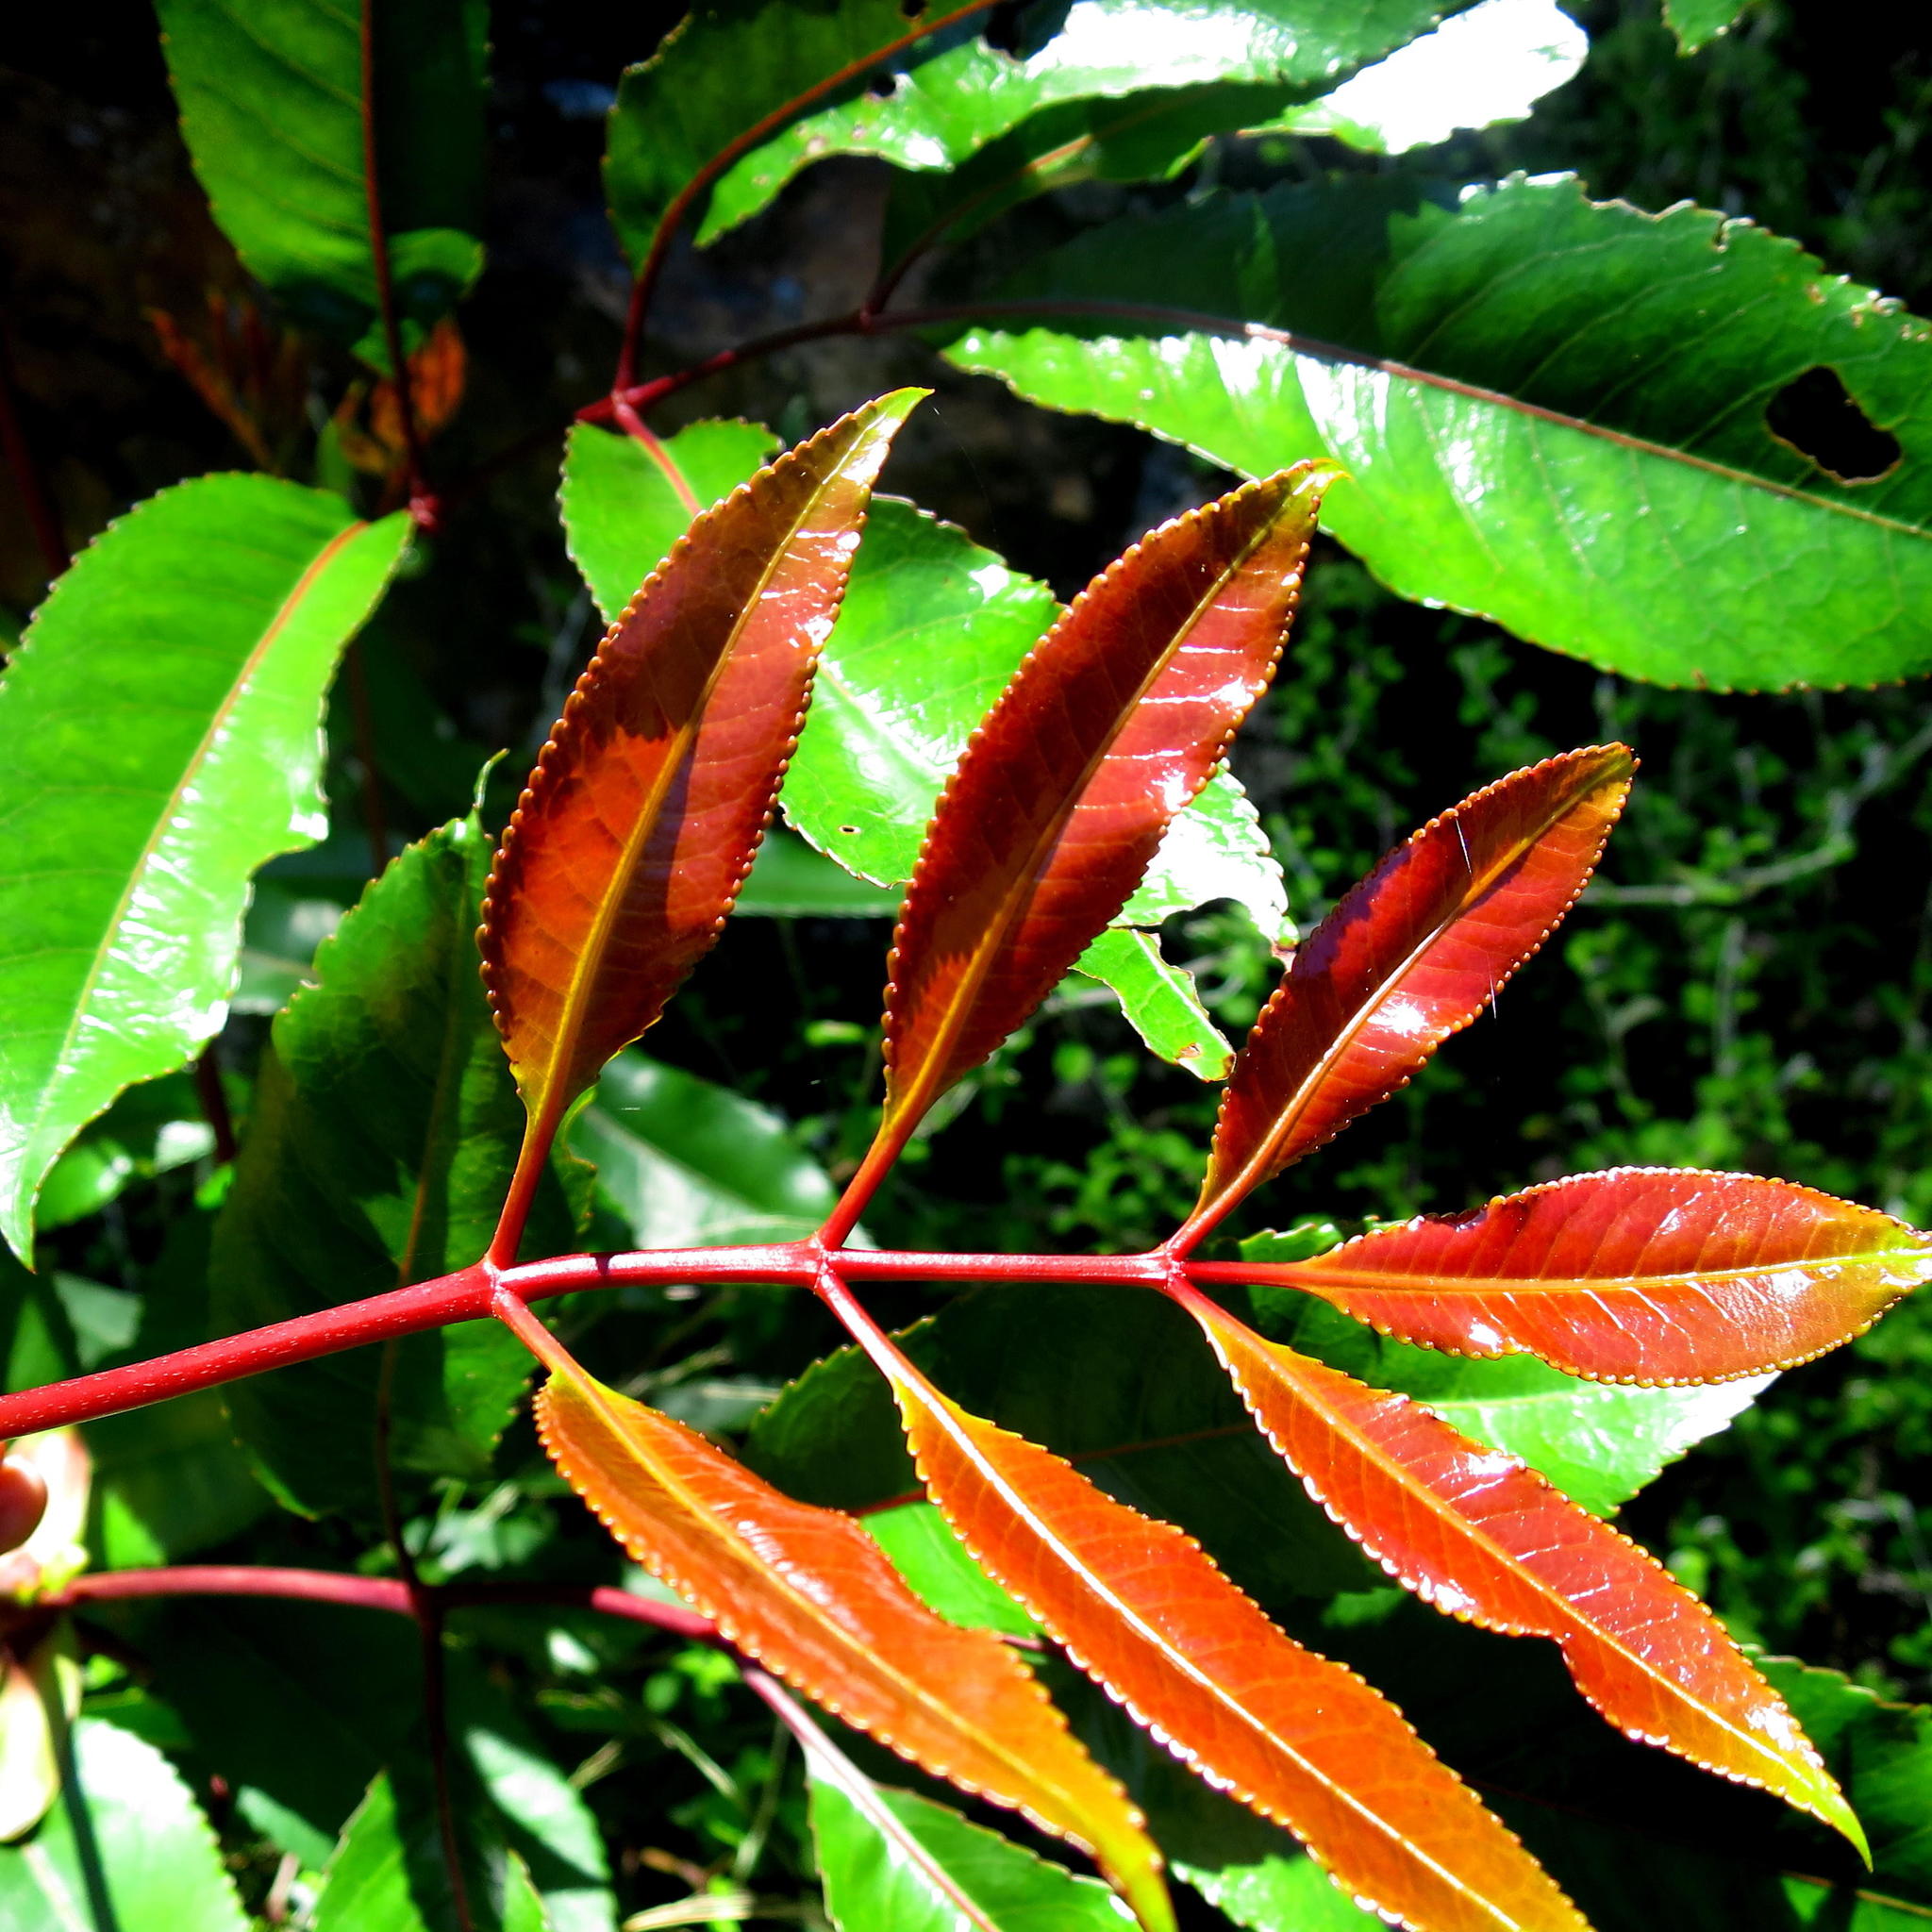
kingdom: Plantae
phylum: Tracheophyta
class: Magnoliopsida
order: Oxalidales
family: Cunoniaceae
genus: Cunonia
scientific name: Cunonia capensis
